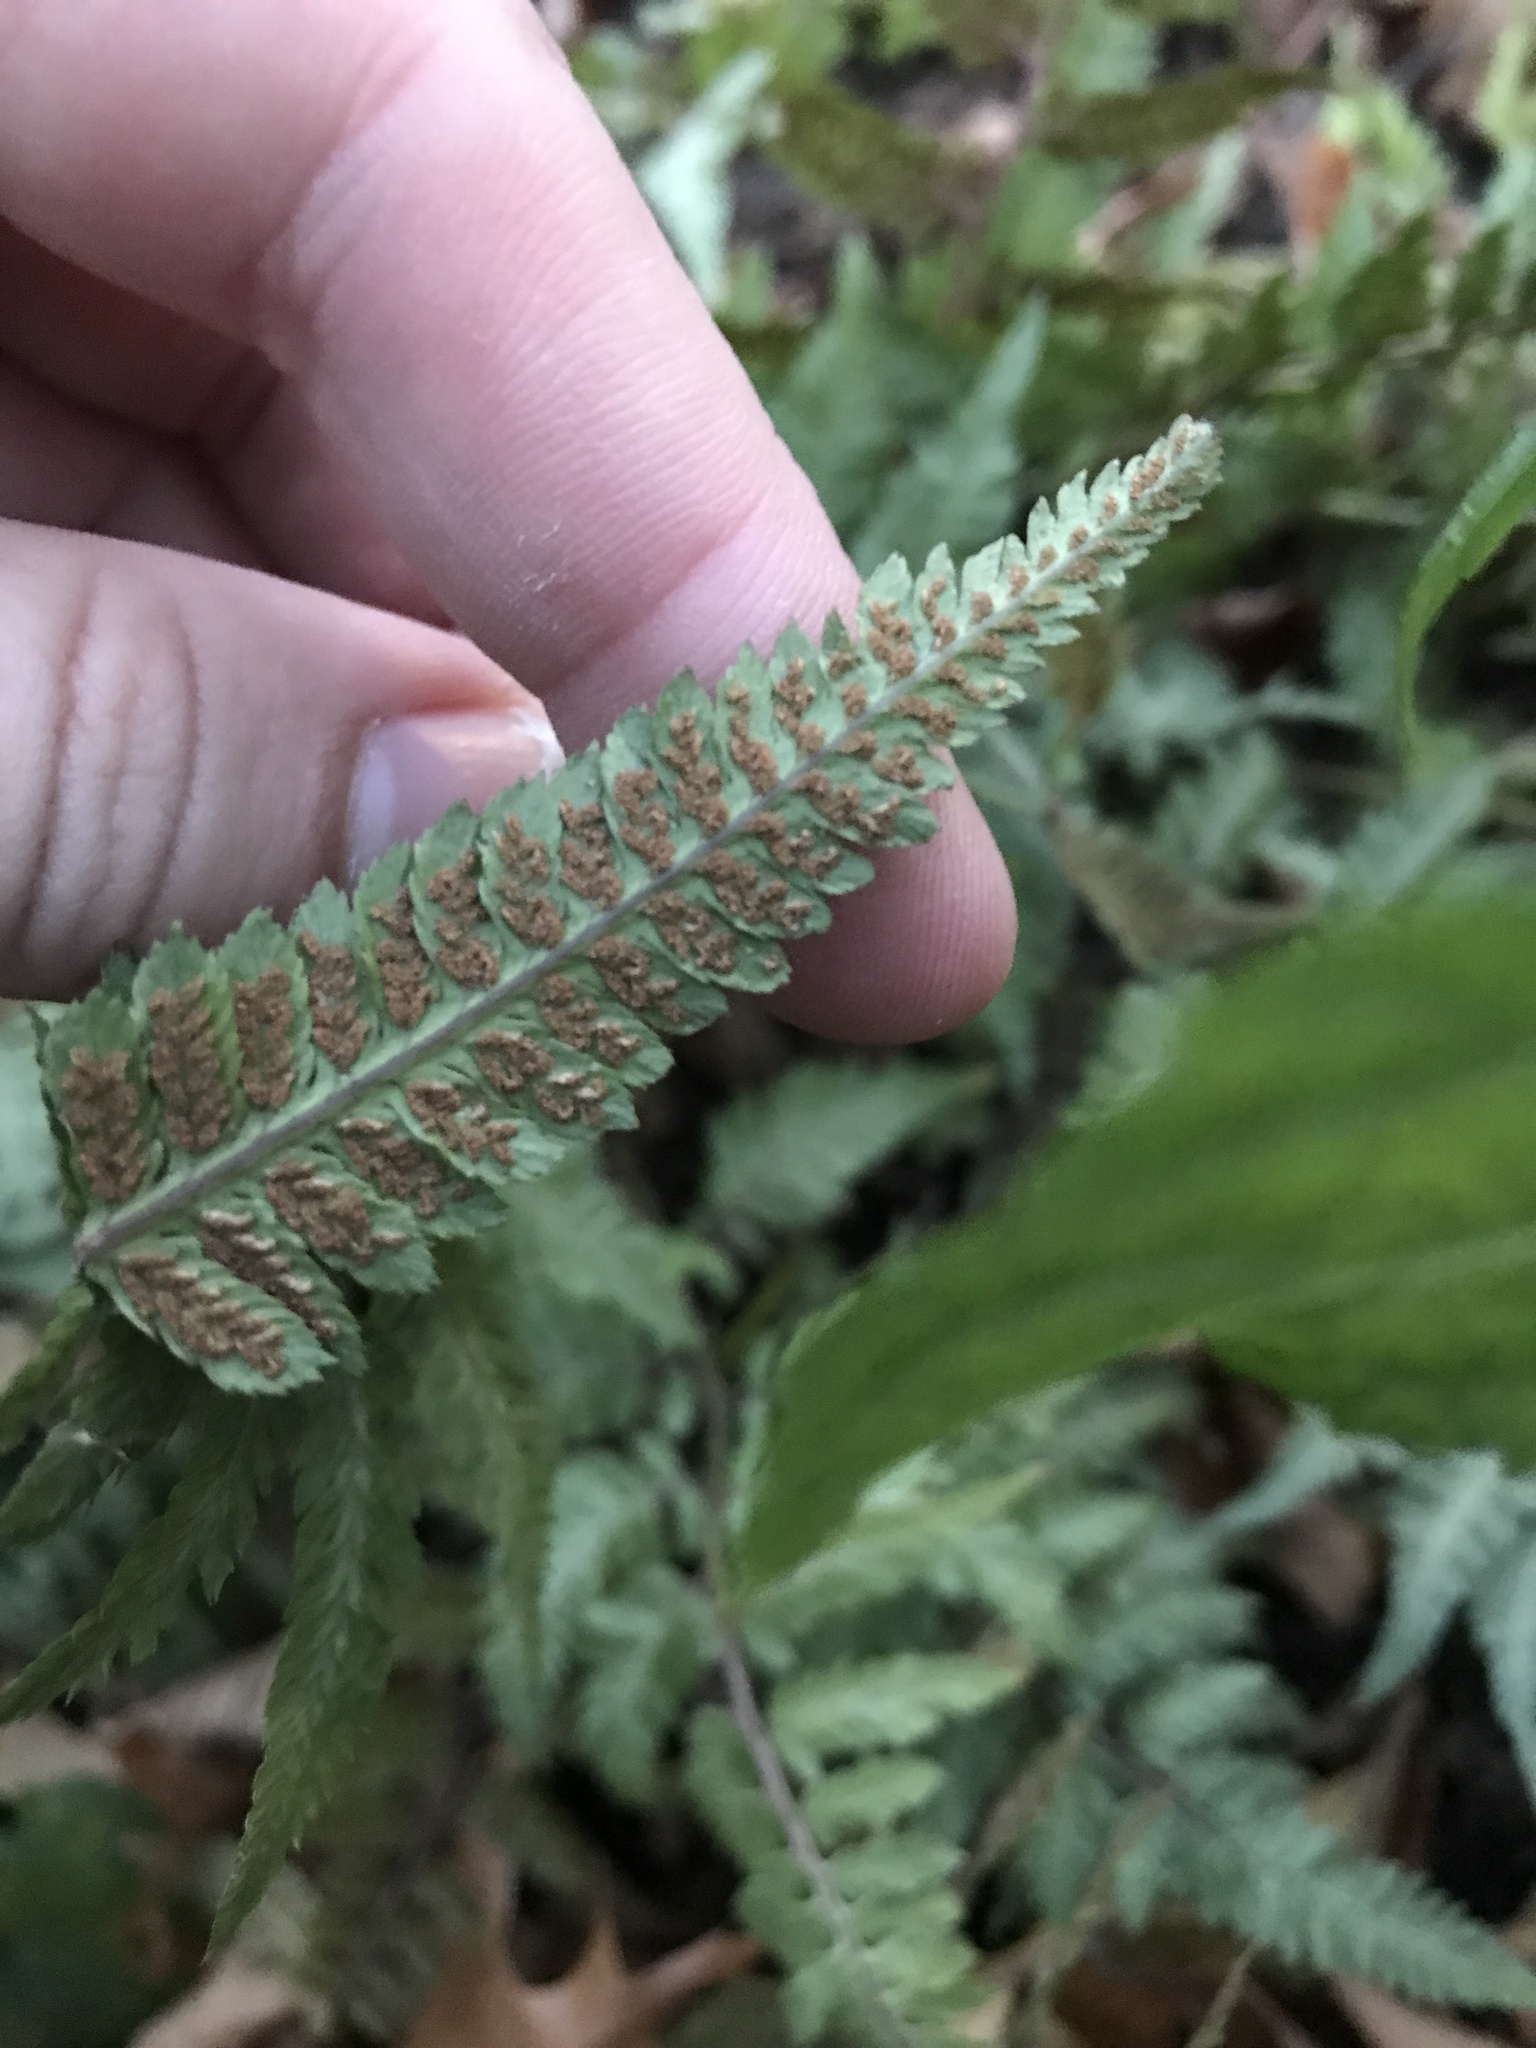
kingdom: Plantae
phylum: Tracheophyta
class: Polypodiopsida
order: Polypodiales
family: Athyriaceae
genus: Anisocampium
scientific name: Anisocampium niponicum
